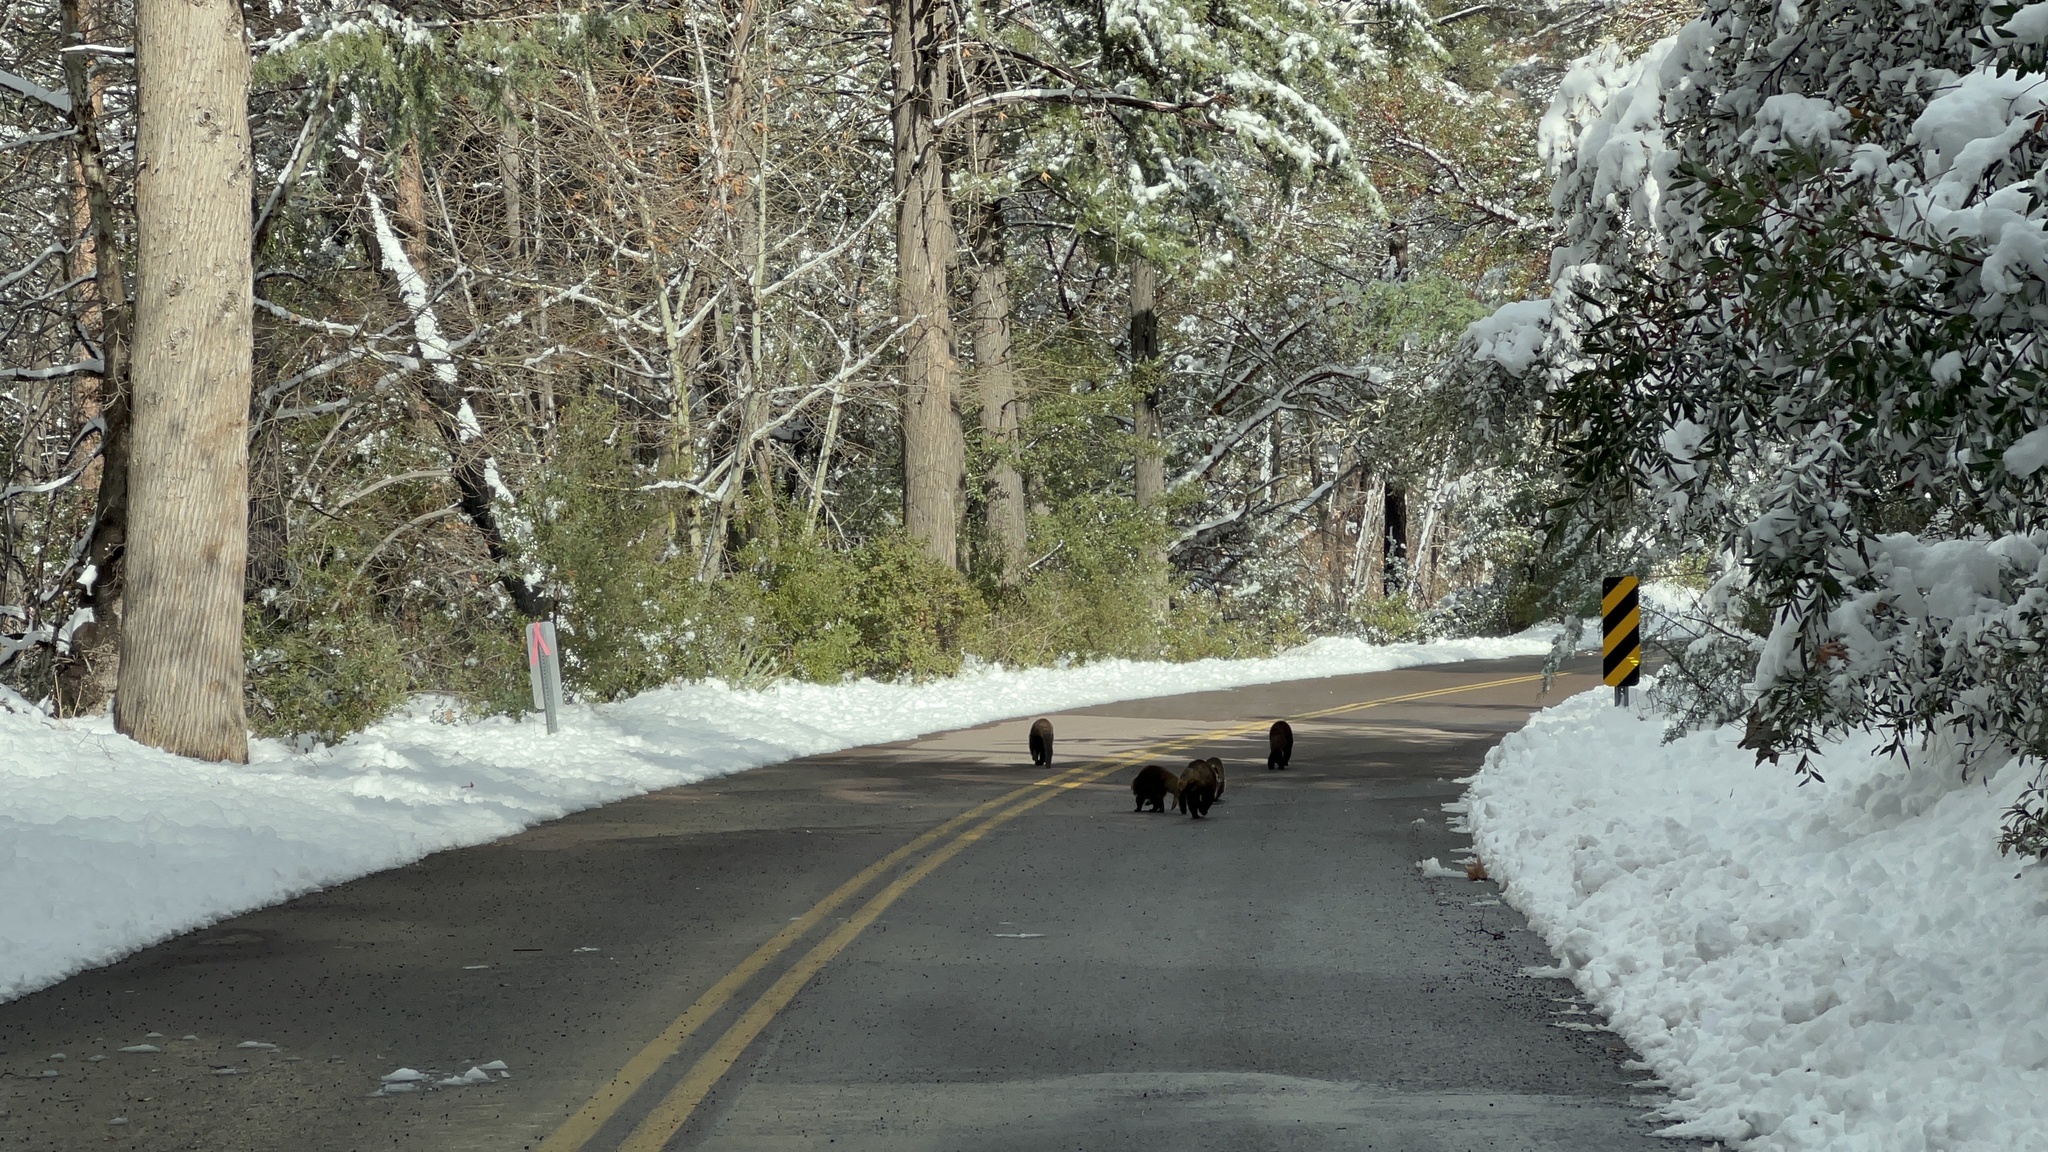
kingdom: Animalia
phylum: Chordata
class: Mammalia
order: Carnivora
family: Procyonidae
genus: Nasua
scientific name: Nasua narica
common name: White-nosed coati
